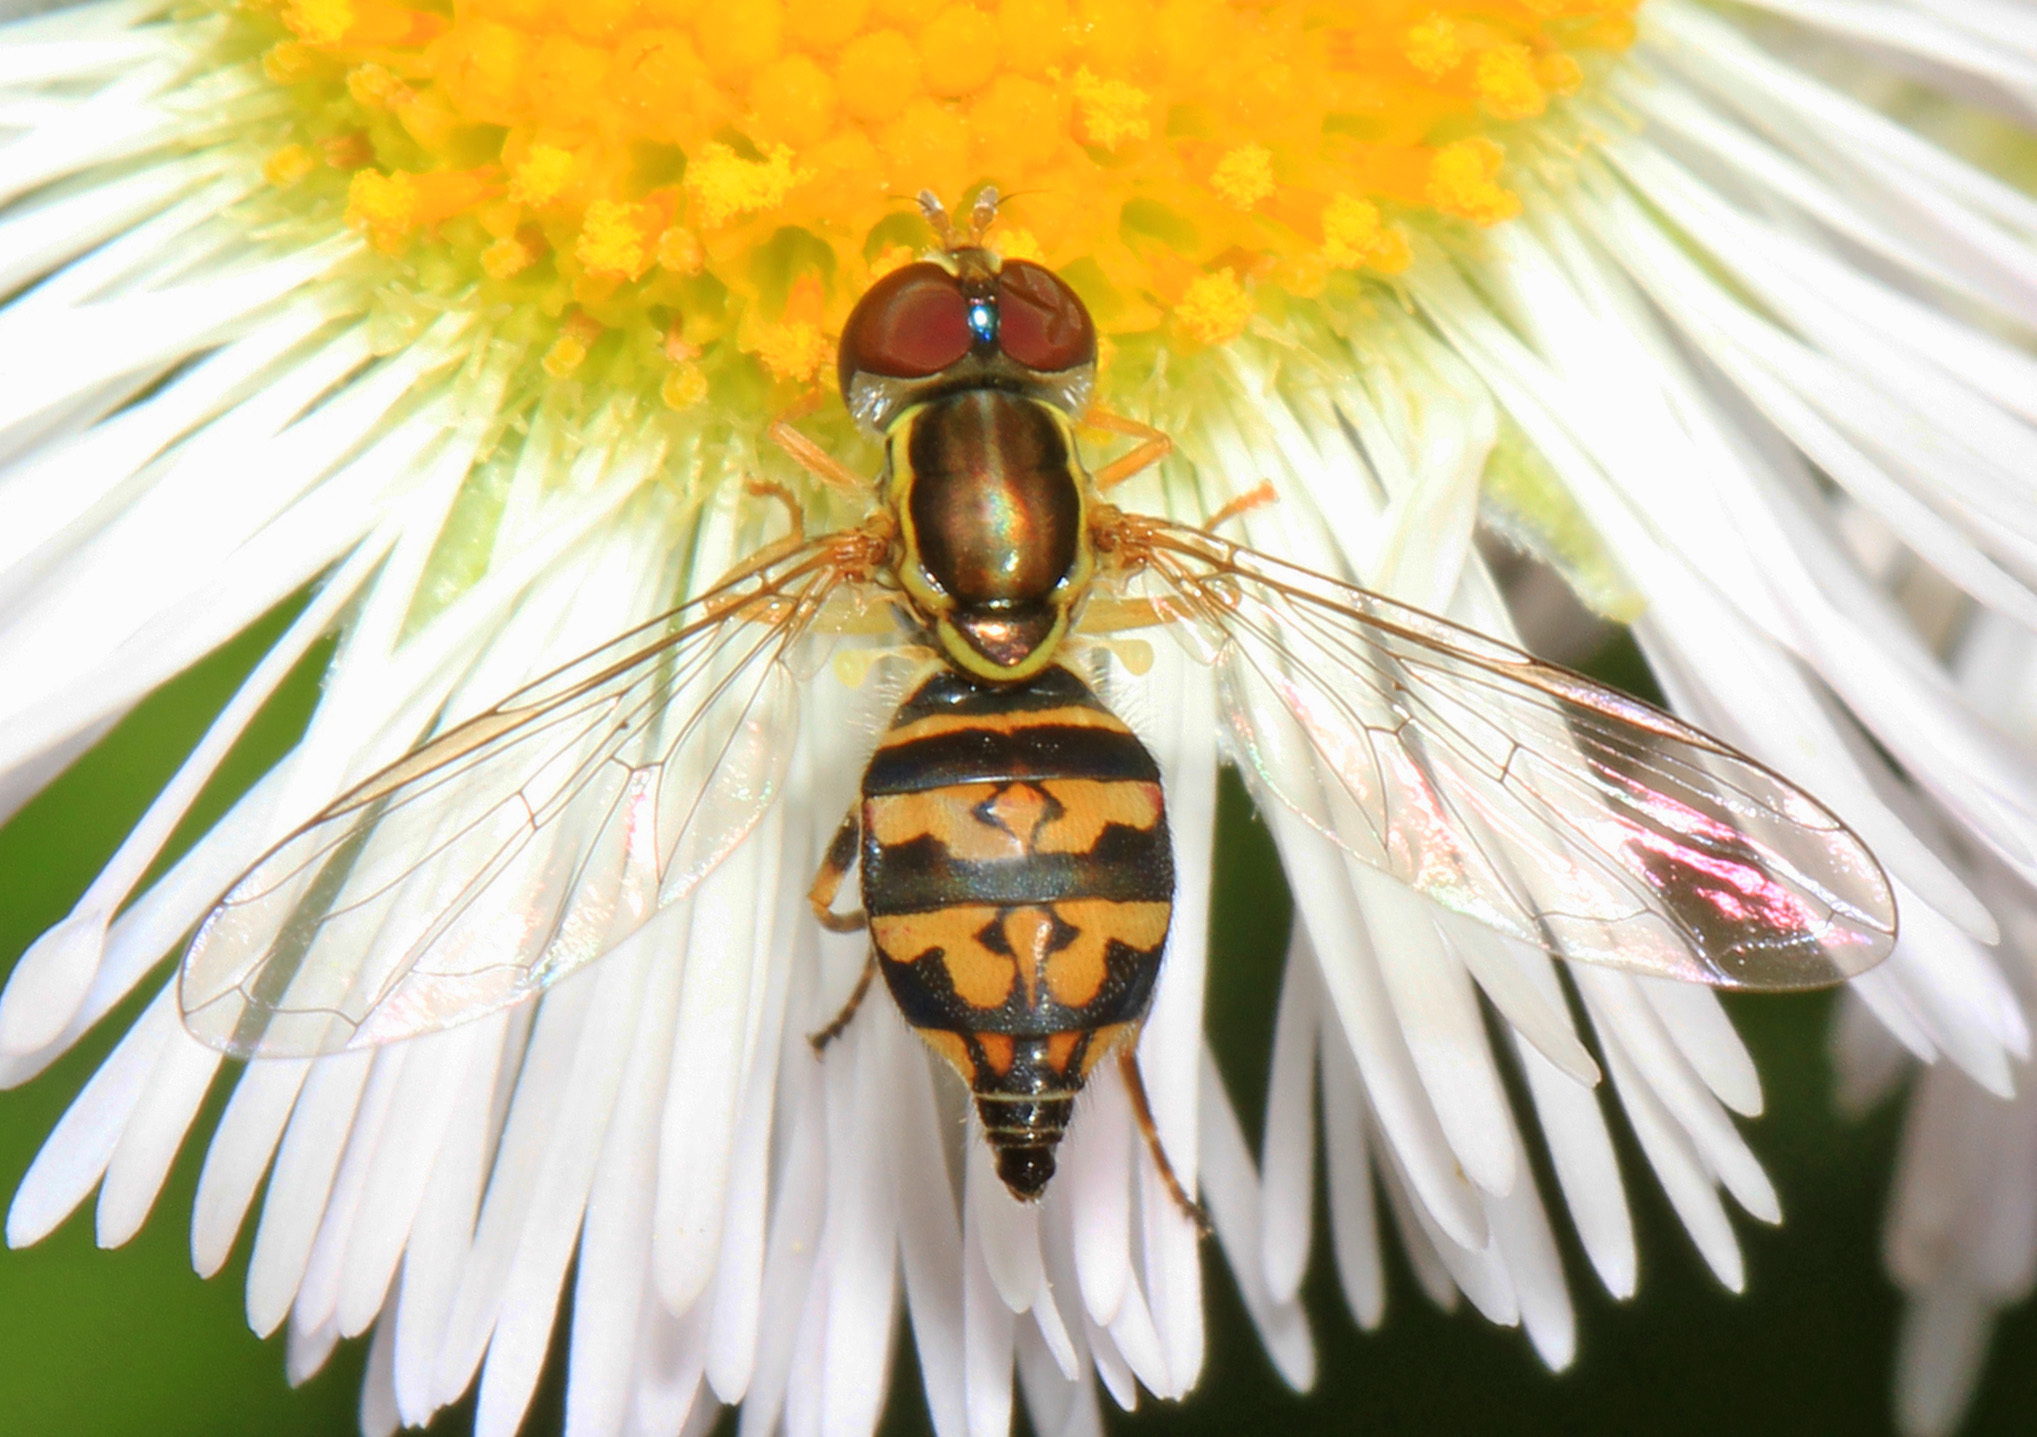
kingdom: Animalia
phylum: Arthropoda
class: Insecta
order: Diptera
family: Syrphidae
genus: Toxomerus
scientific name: Toxomerus geminatus
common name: Eastern calligrapher
